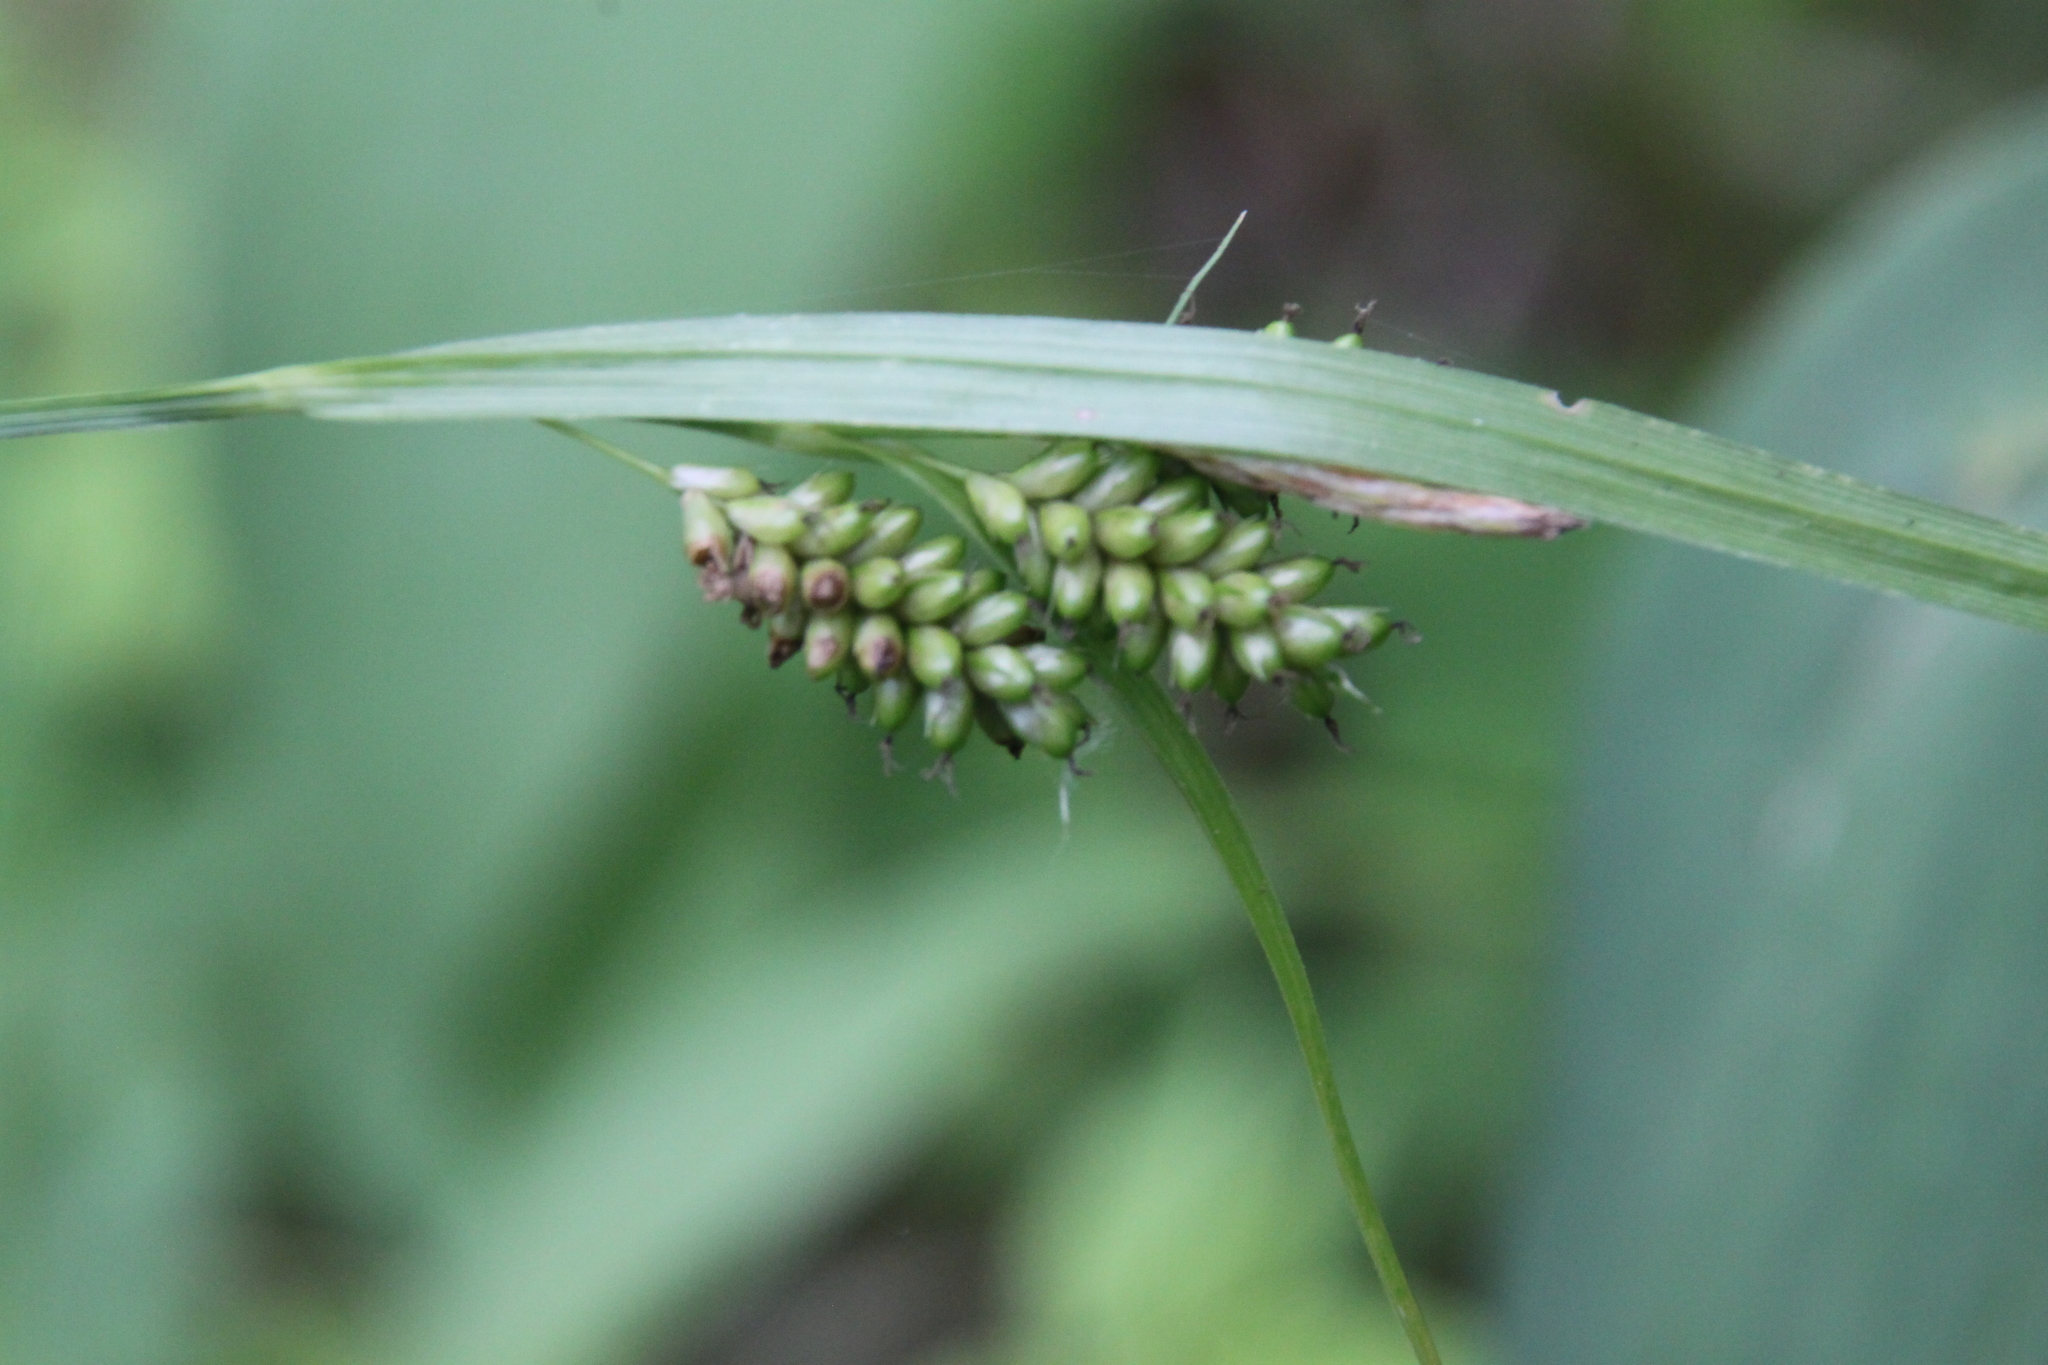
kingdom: Plantae
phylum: Tracheophyta
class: Liliopsida
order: Poales
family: Cyperaceae
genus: Carex
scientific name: Carex pallescens
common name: Pale sedge
